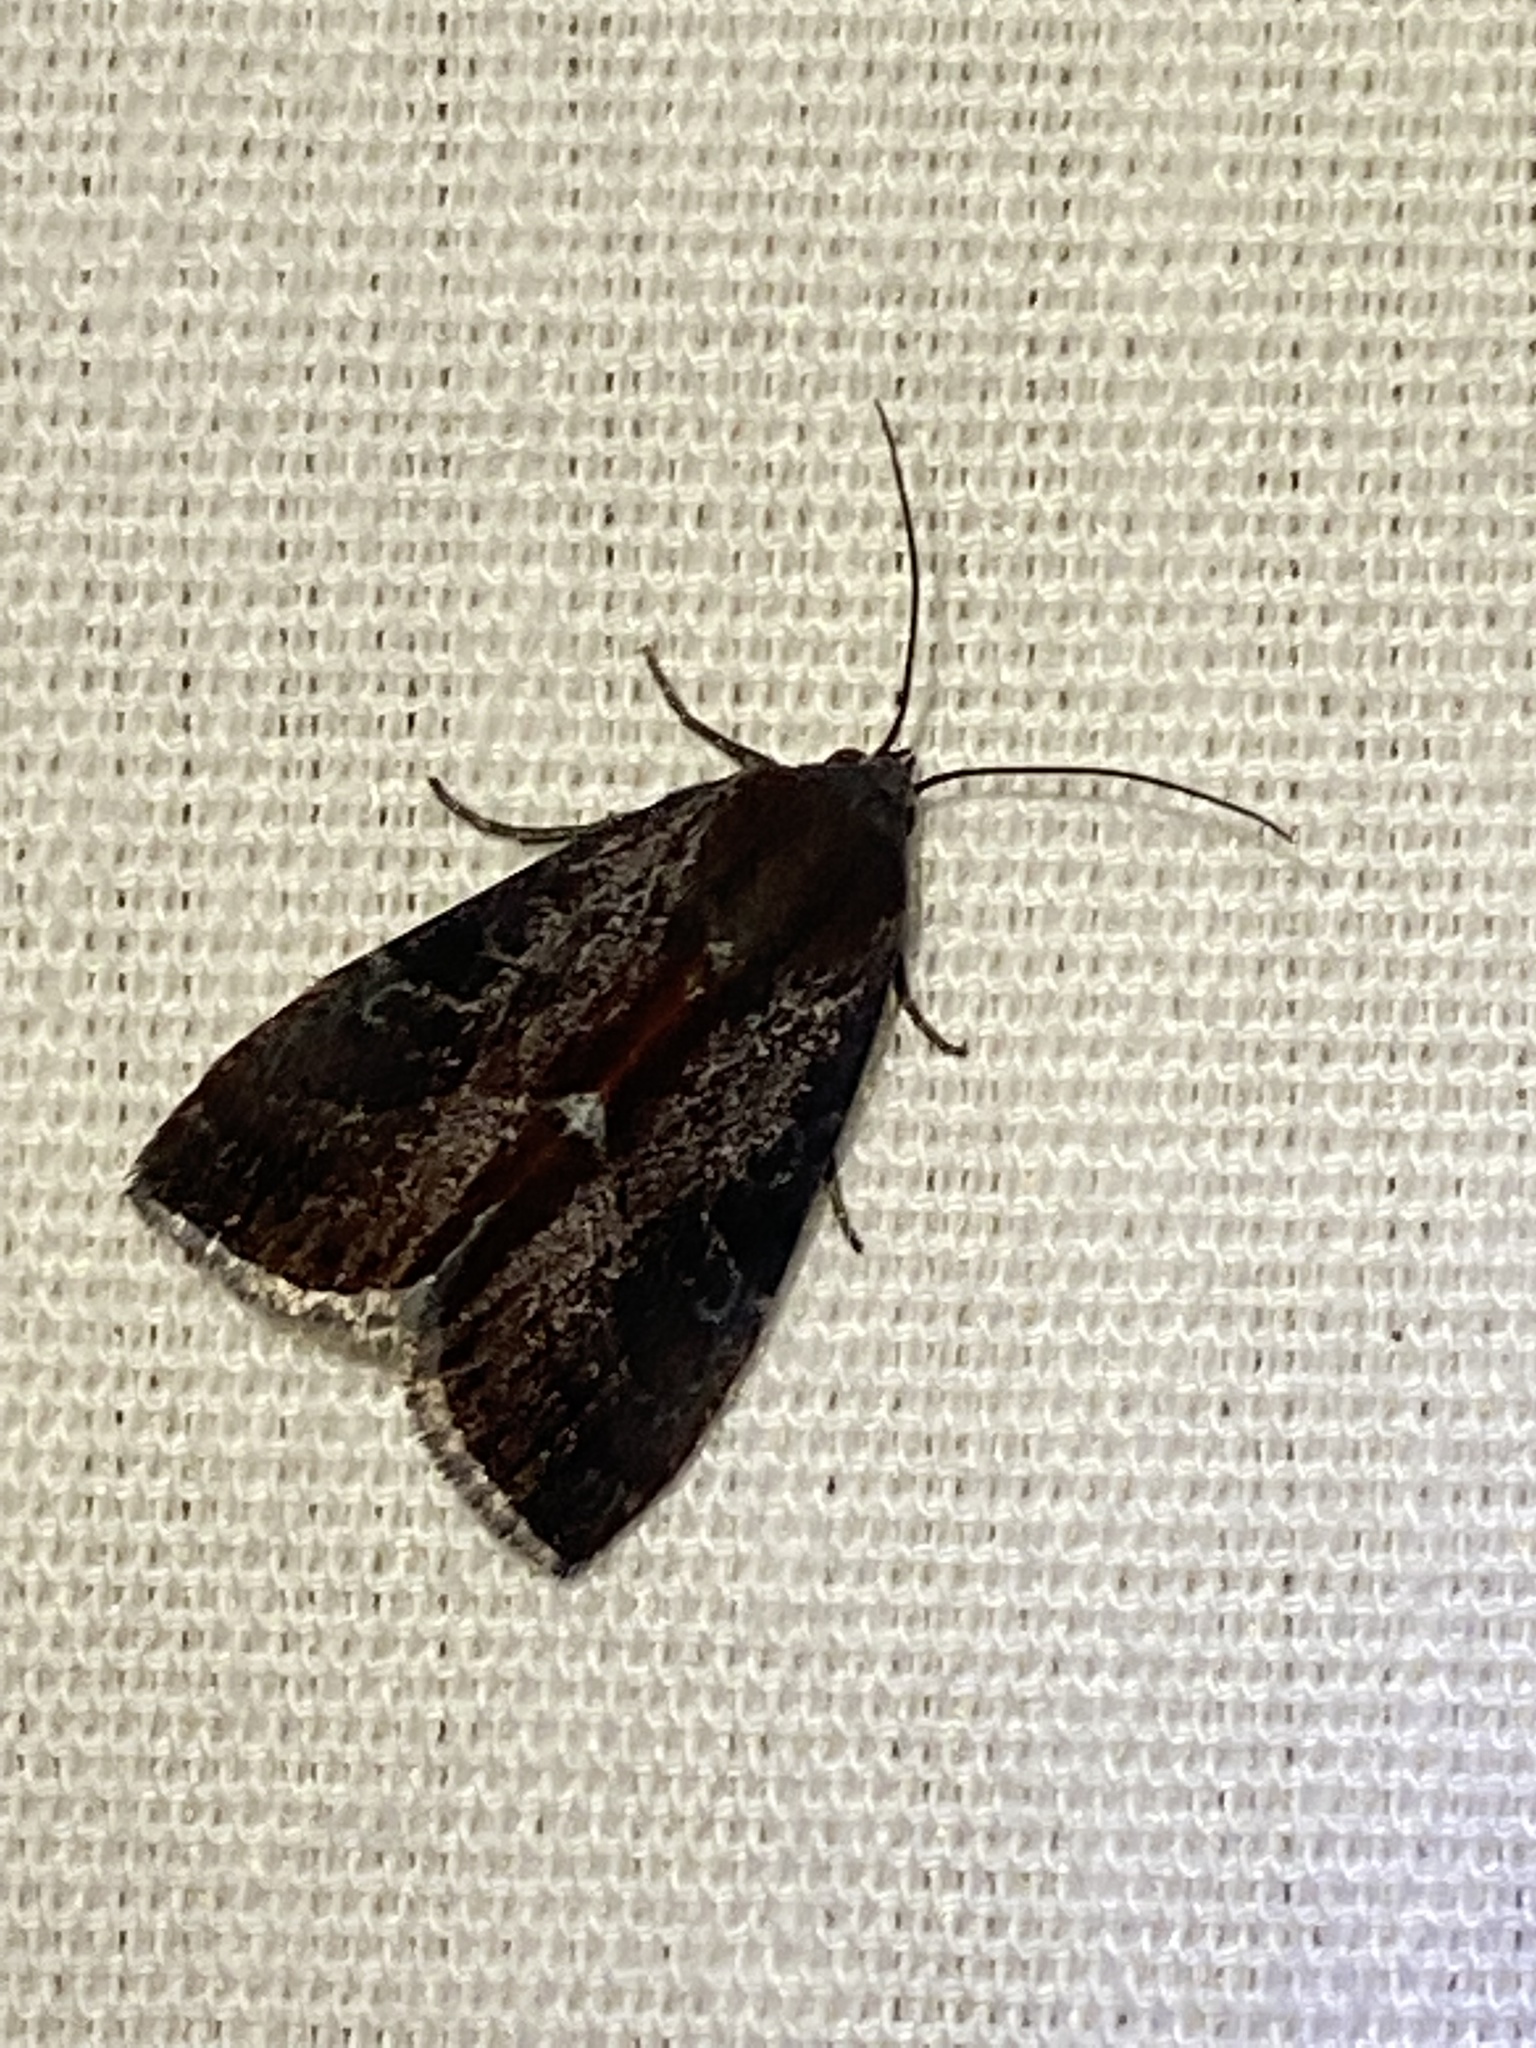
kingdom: Animalia
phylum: Arthropoda
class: Insecta
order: Lepidoptera
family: Noctuidae
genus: Galgula
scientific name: Galgula partita
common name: Wedgeling
